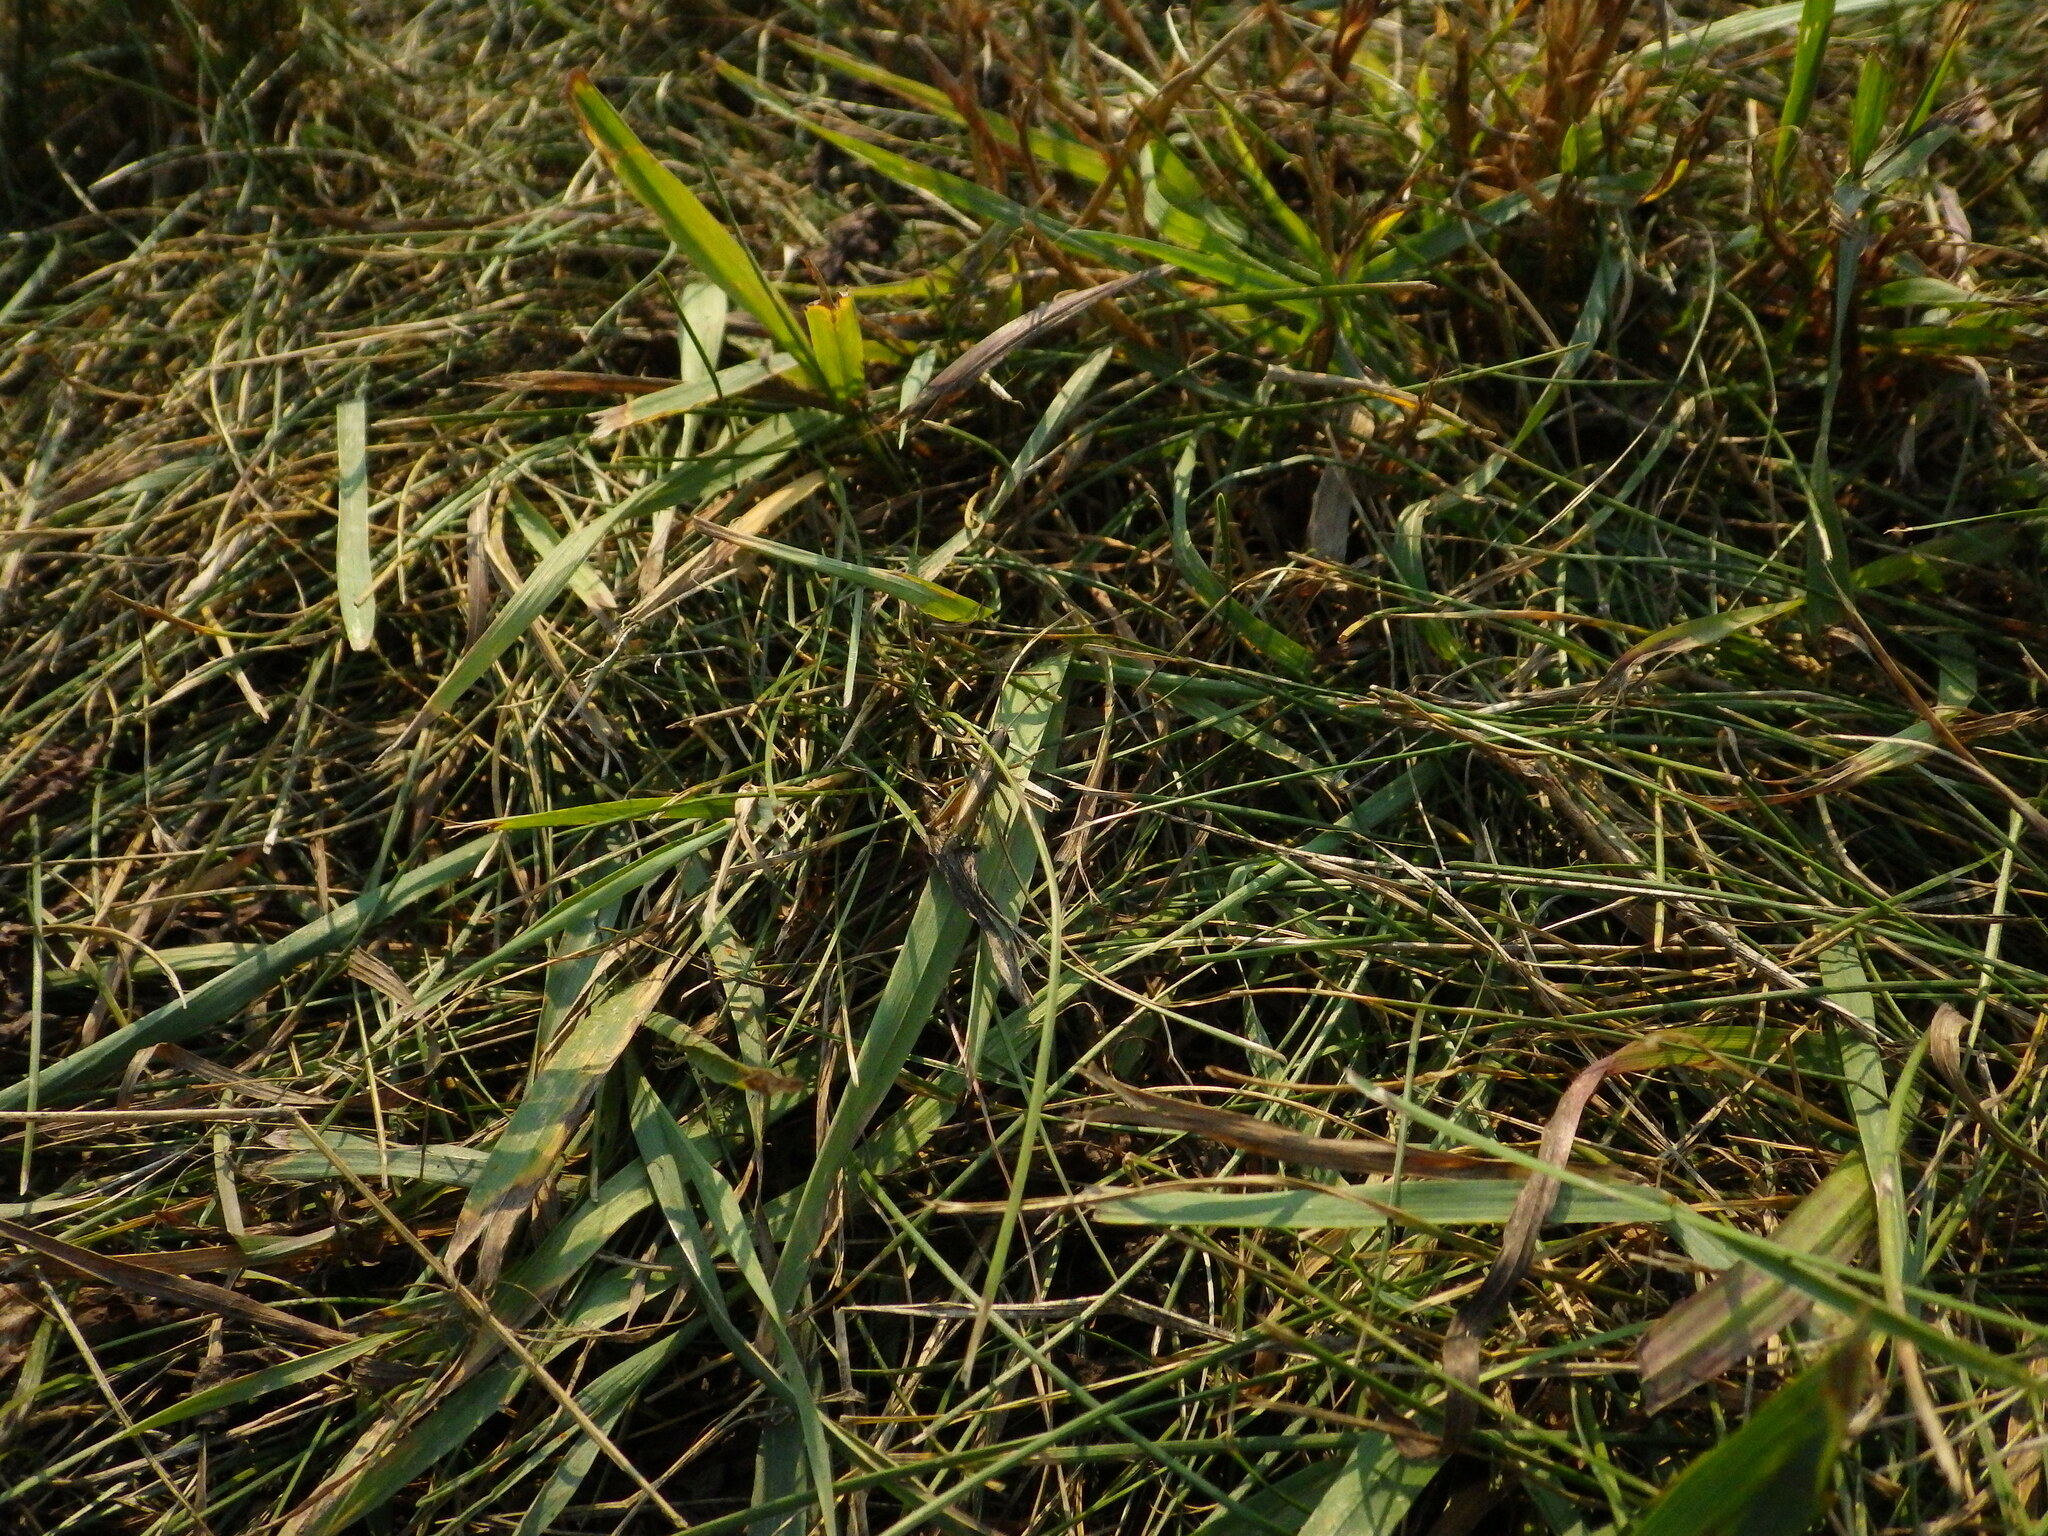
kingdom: Animalia
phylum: Arthropoda
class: Insecta
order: Orthoptera
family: Acrididae
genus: Pseudochorthippus
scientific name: Pseudochorthippus curtipennis
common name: Marsh meadow grasshopper
